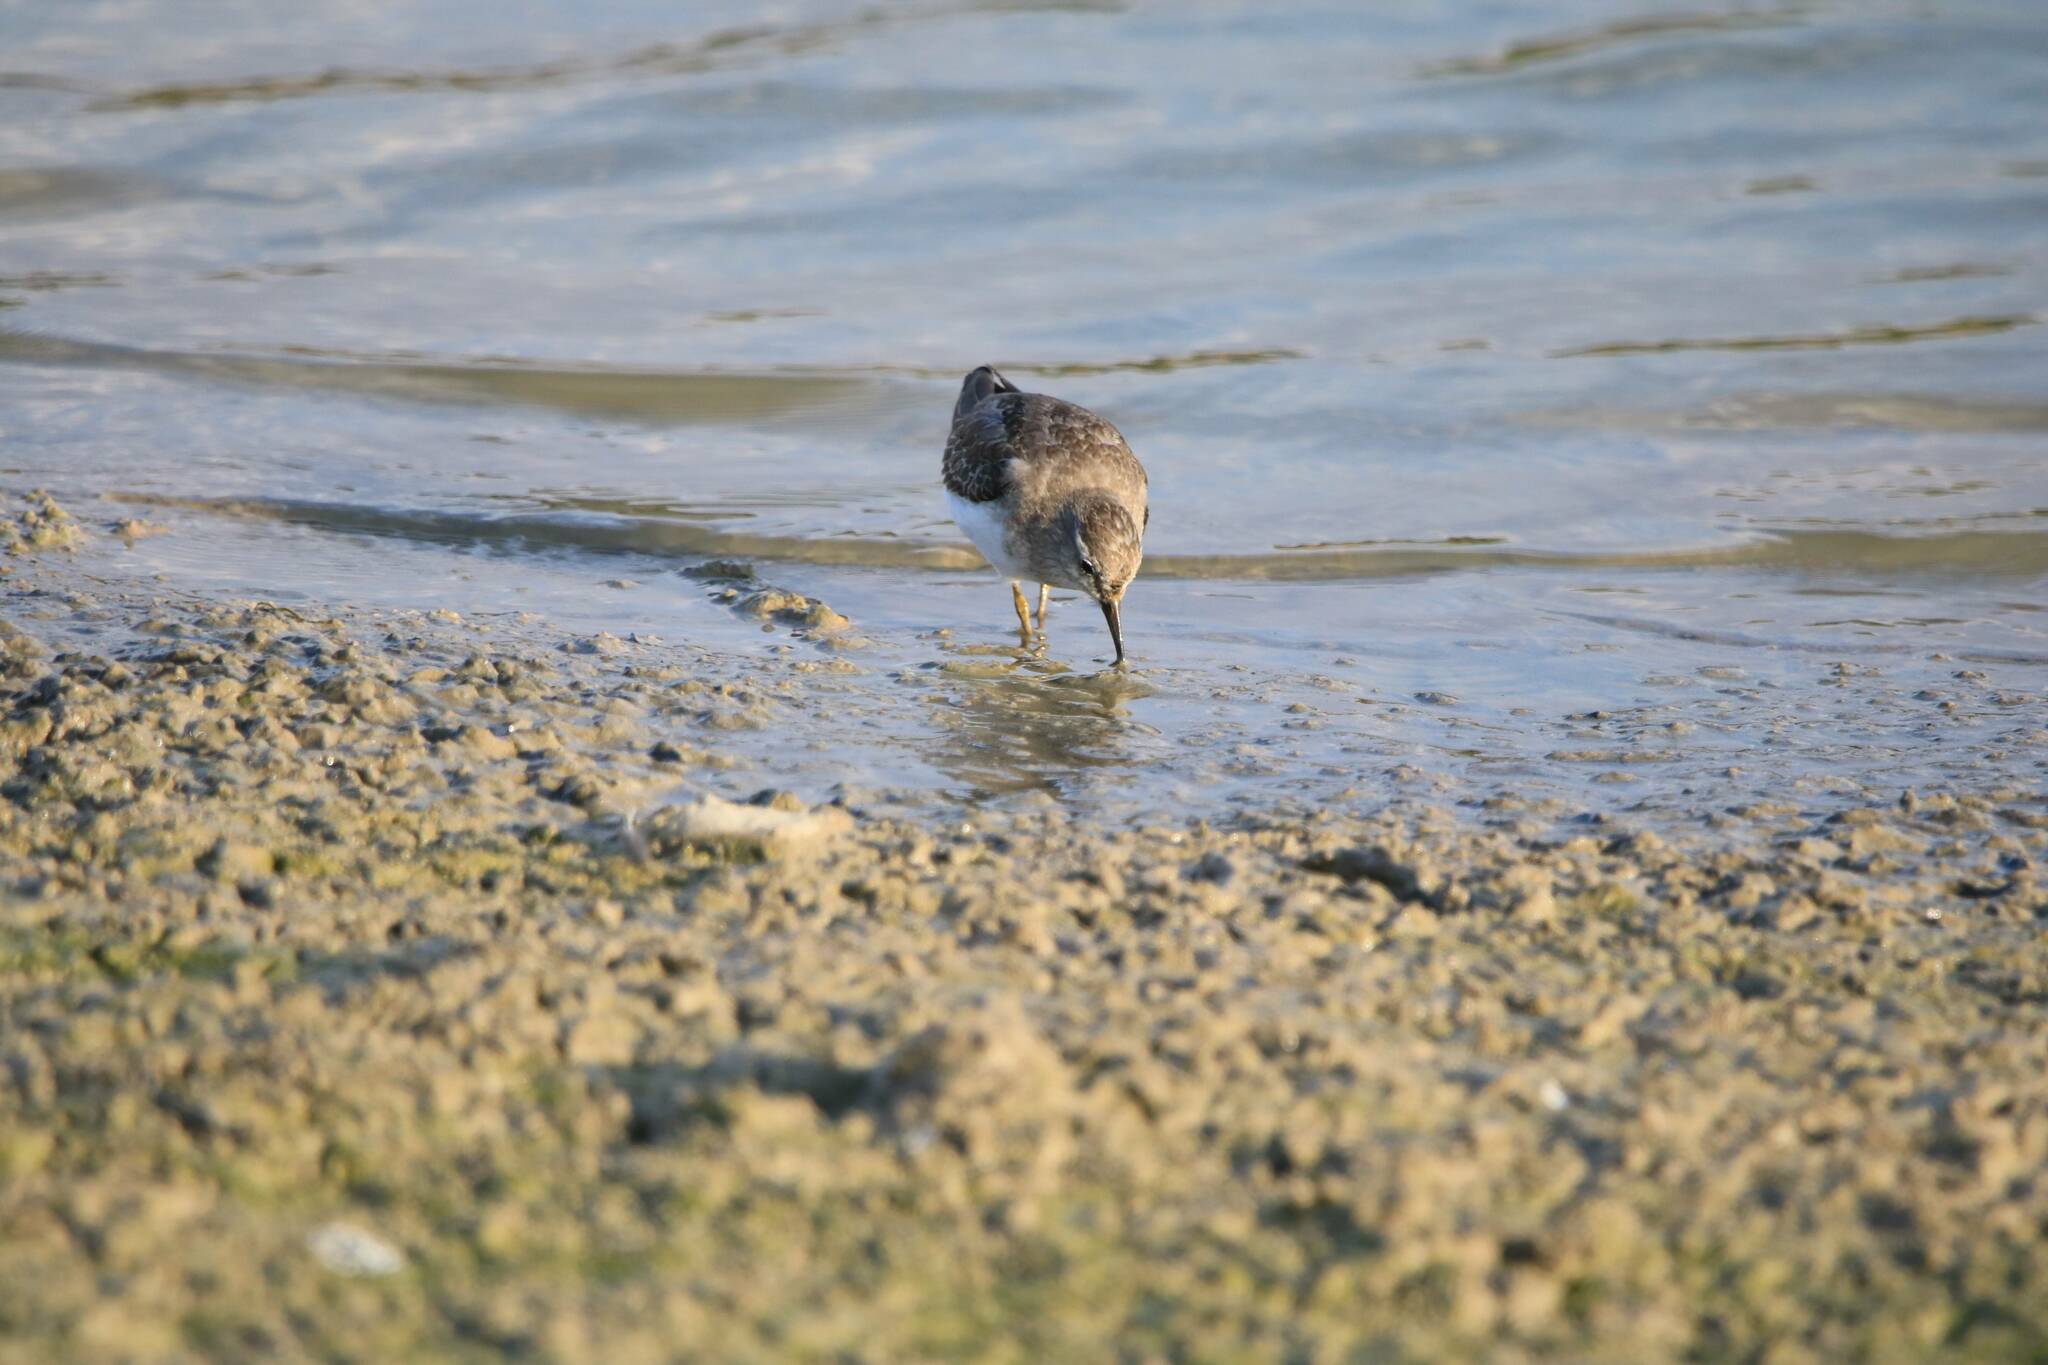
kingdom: Animalia
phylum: Chordata
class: Aves
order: Charadriiformes
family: Scolopacidae
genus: Calidris
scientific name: Calidris temminckii
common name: Temminck's stint
